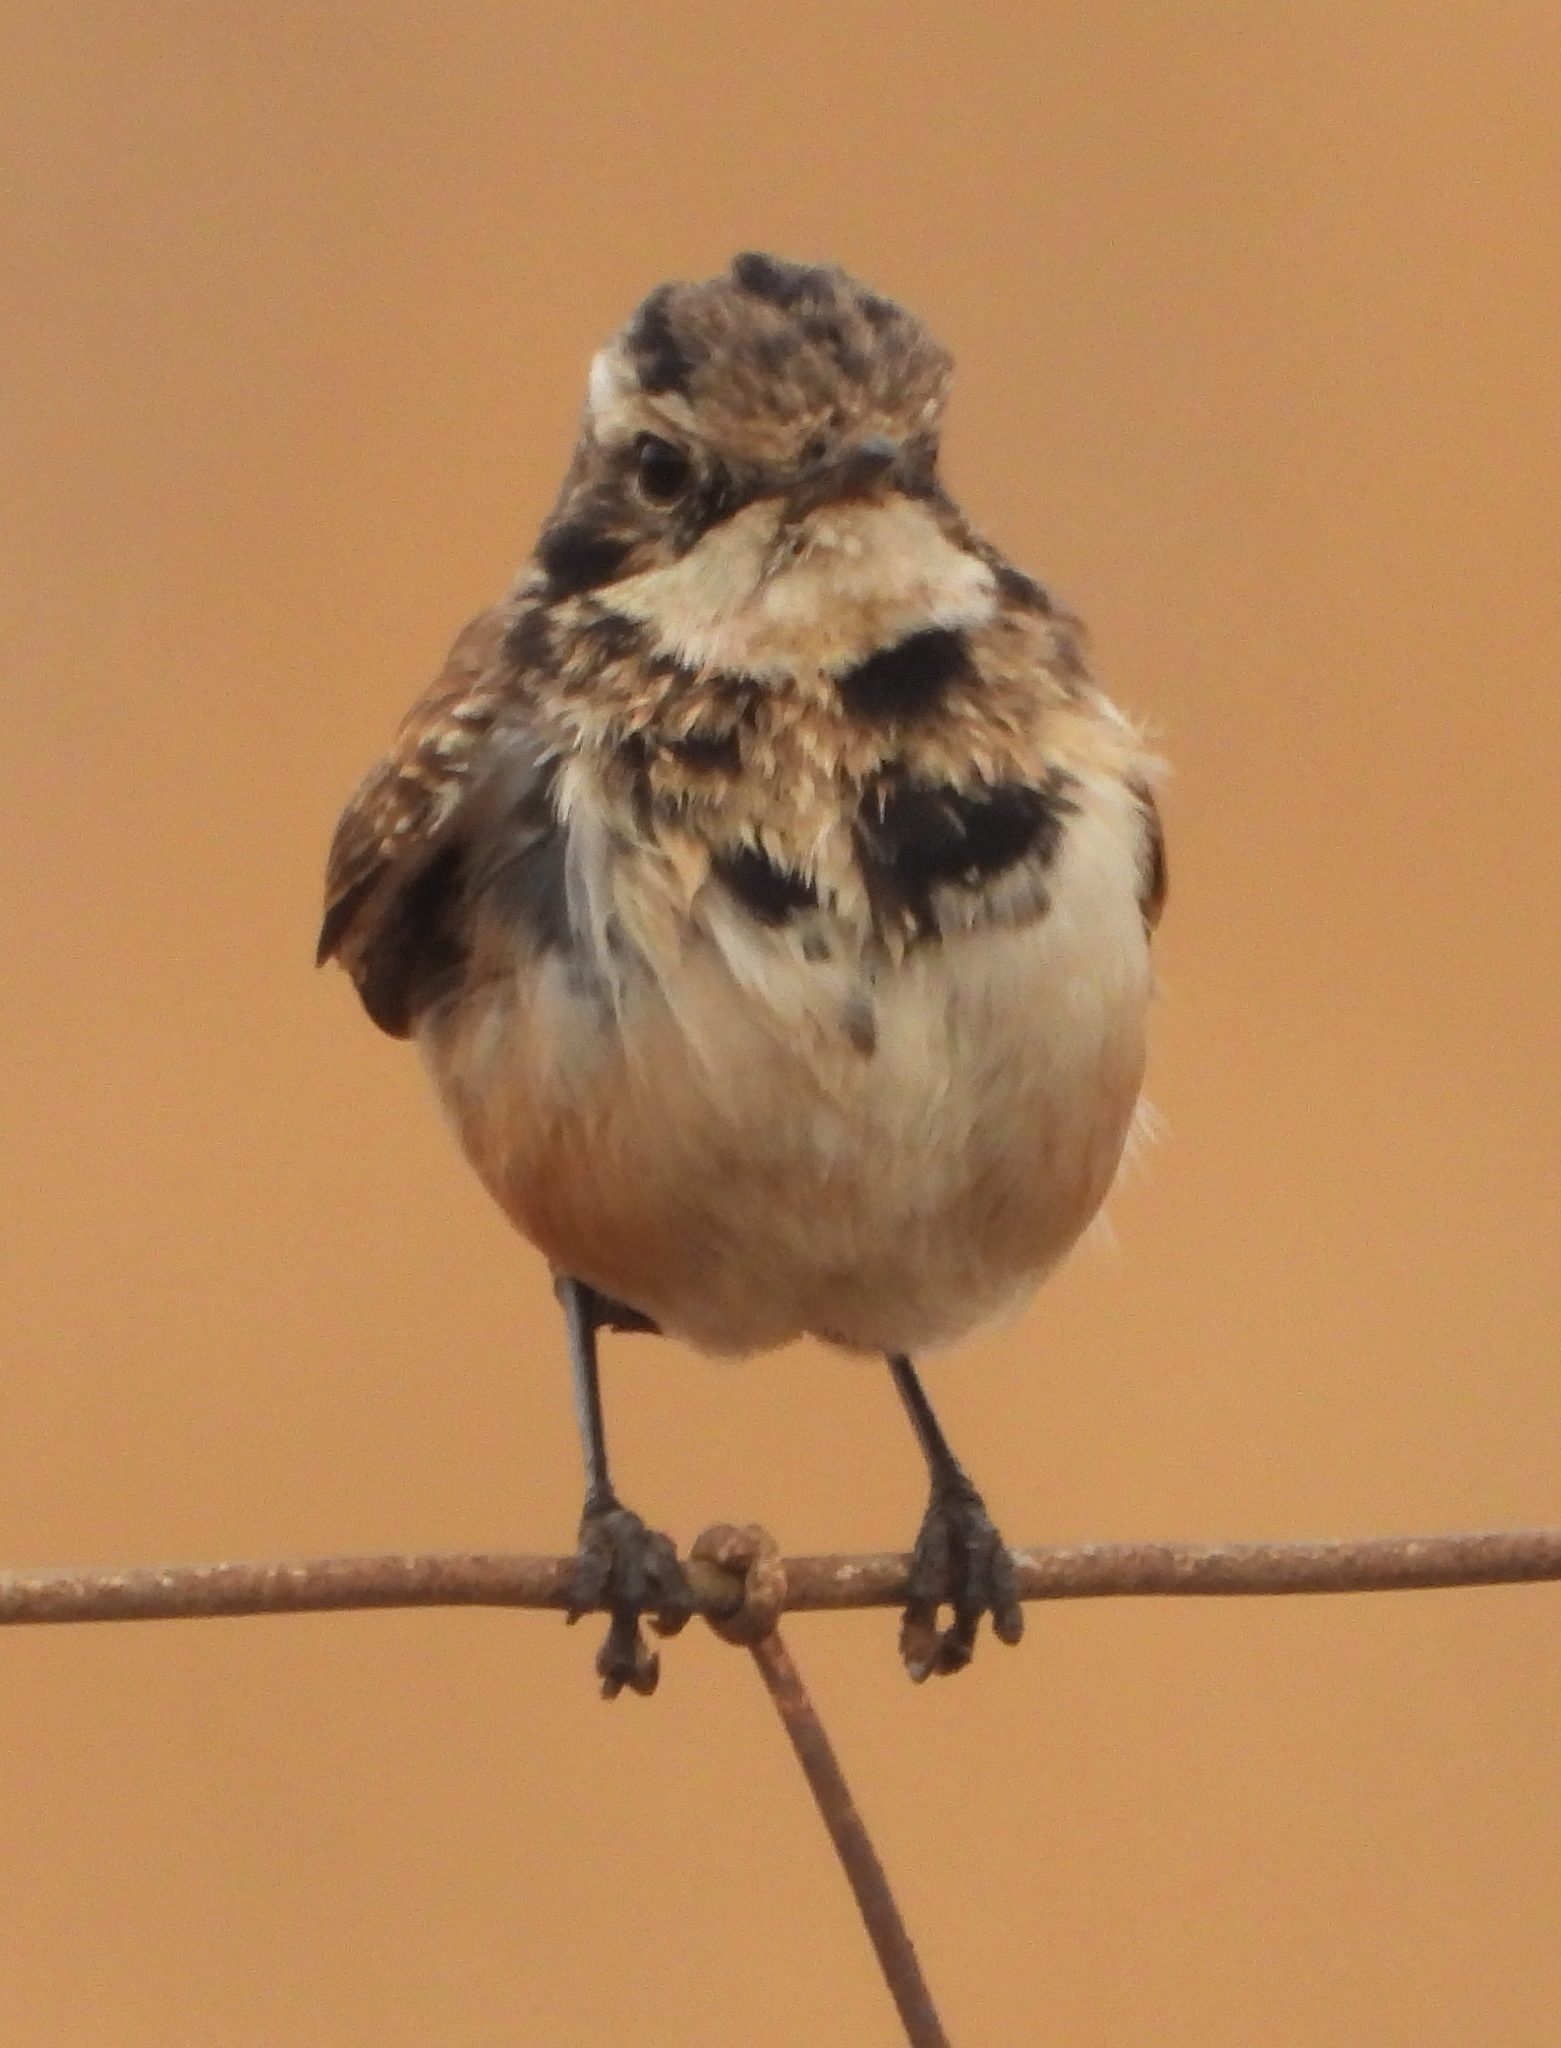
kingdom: Animalia
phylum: Chordata
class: Aves
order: Passeriformes
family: Muscicapidae
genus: Oenanthe
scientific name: Oenanthe pileata
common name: Capped wheatear
